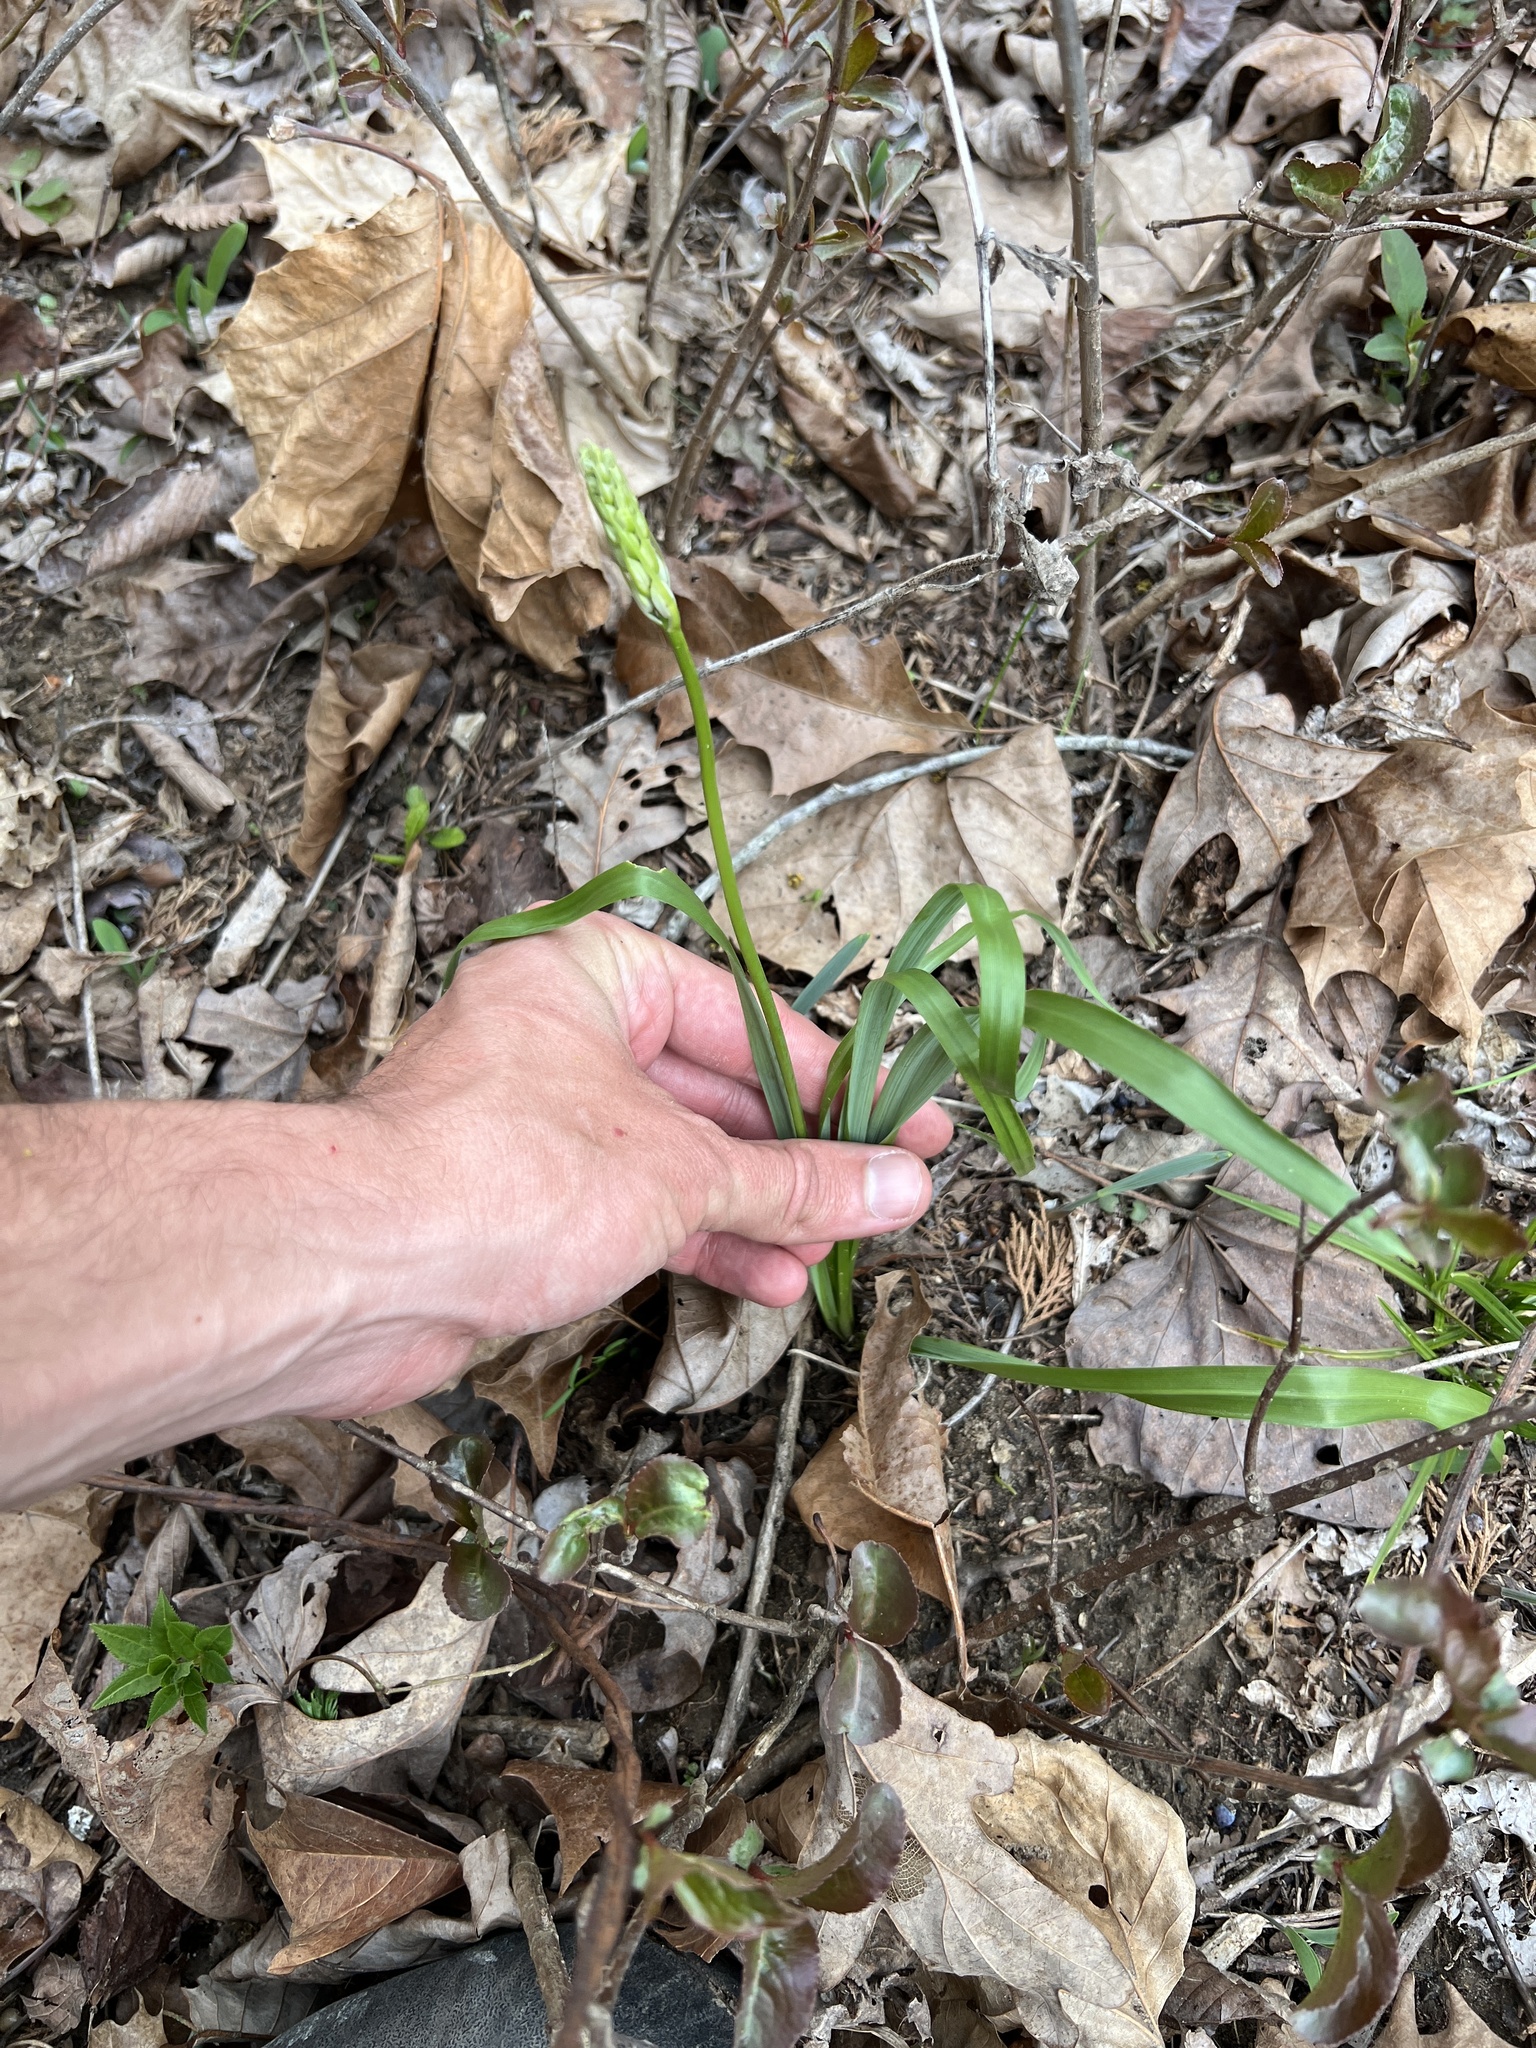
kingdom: Plantae
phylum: Tracheophyta
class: Liliopsida
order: Asparagales
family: Asparagaceae
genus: Camassia
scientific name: Camassia scilloides
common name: Wild hyacinth
